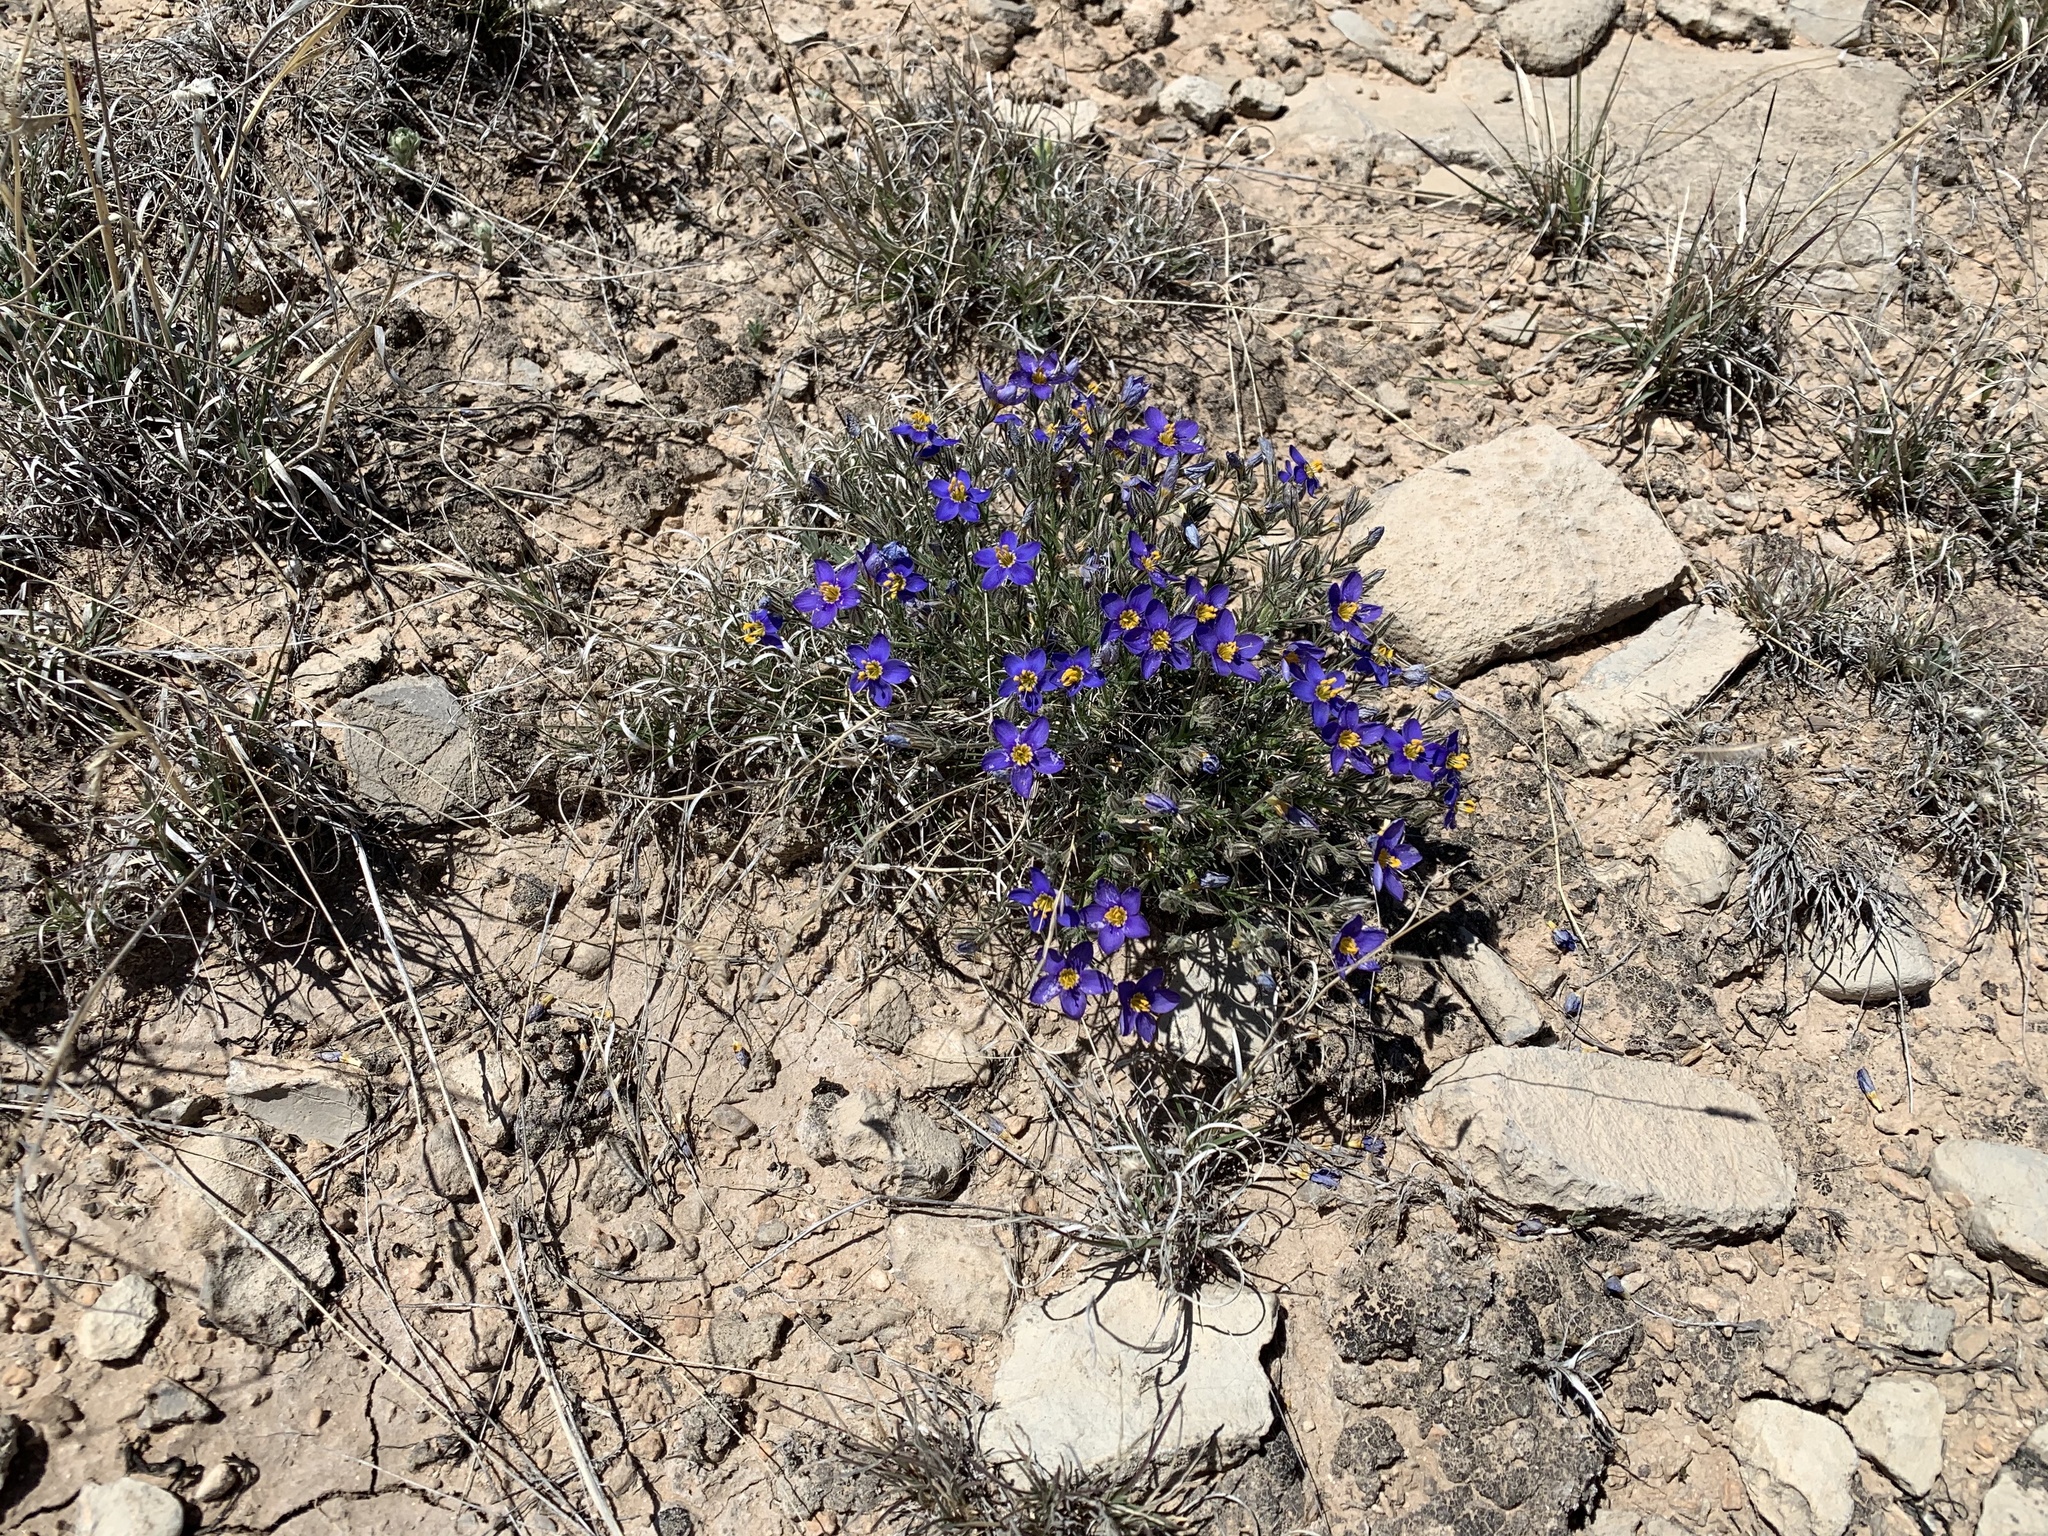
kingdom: Plantae
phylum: Tracheophyta
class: Magnoliopsida
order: Ericales
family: Polemoniaceae
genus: Giliastrum
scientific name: Giliastrum acerosum
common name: Bluebowls
